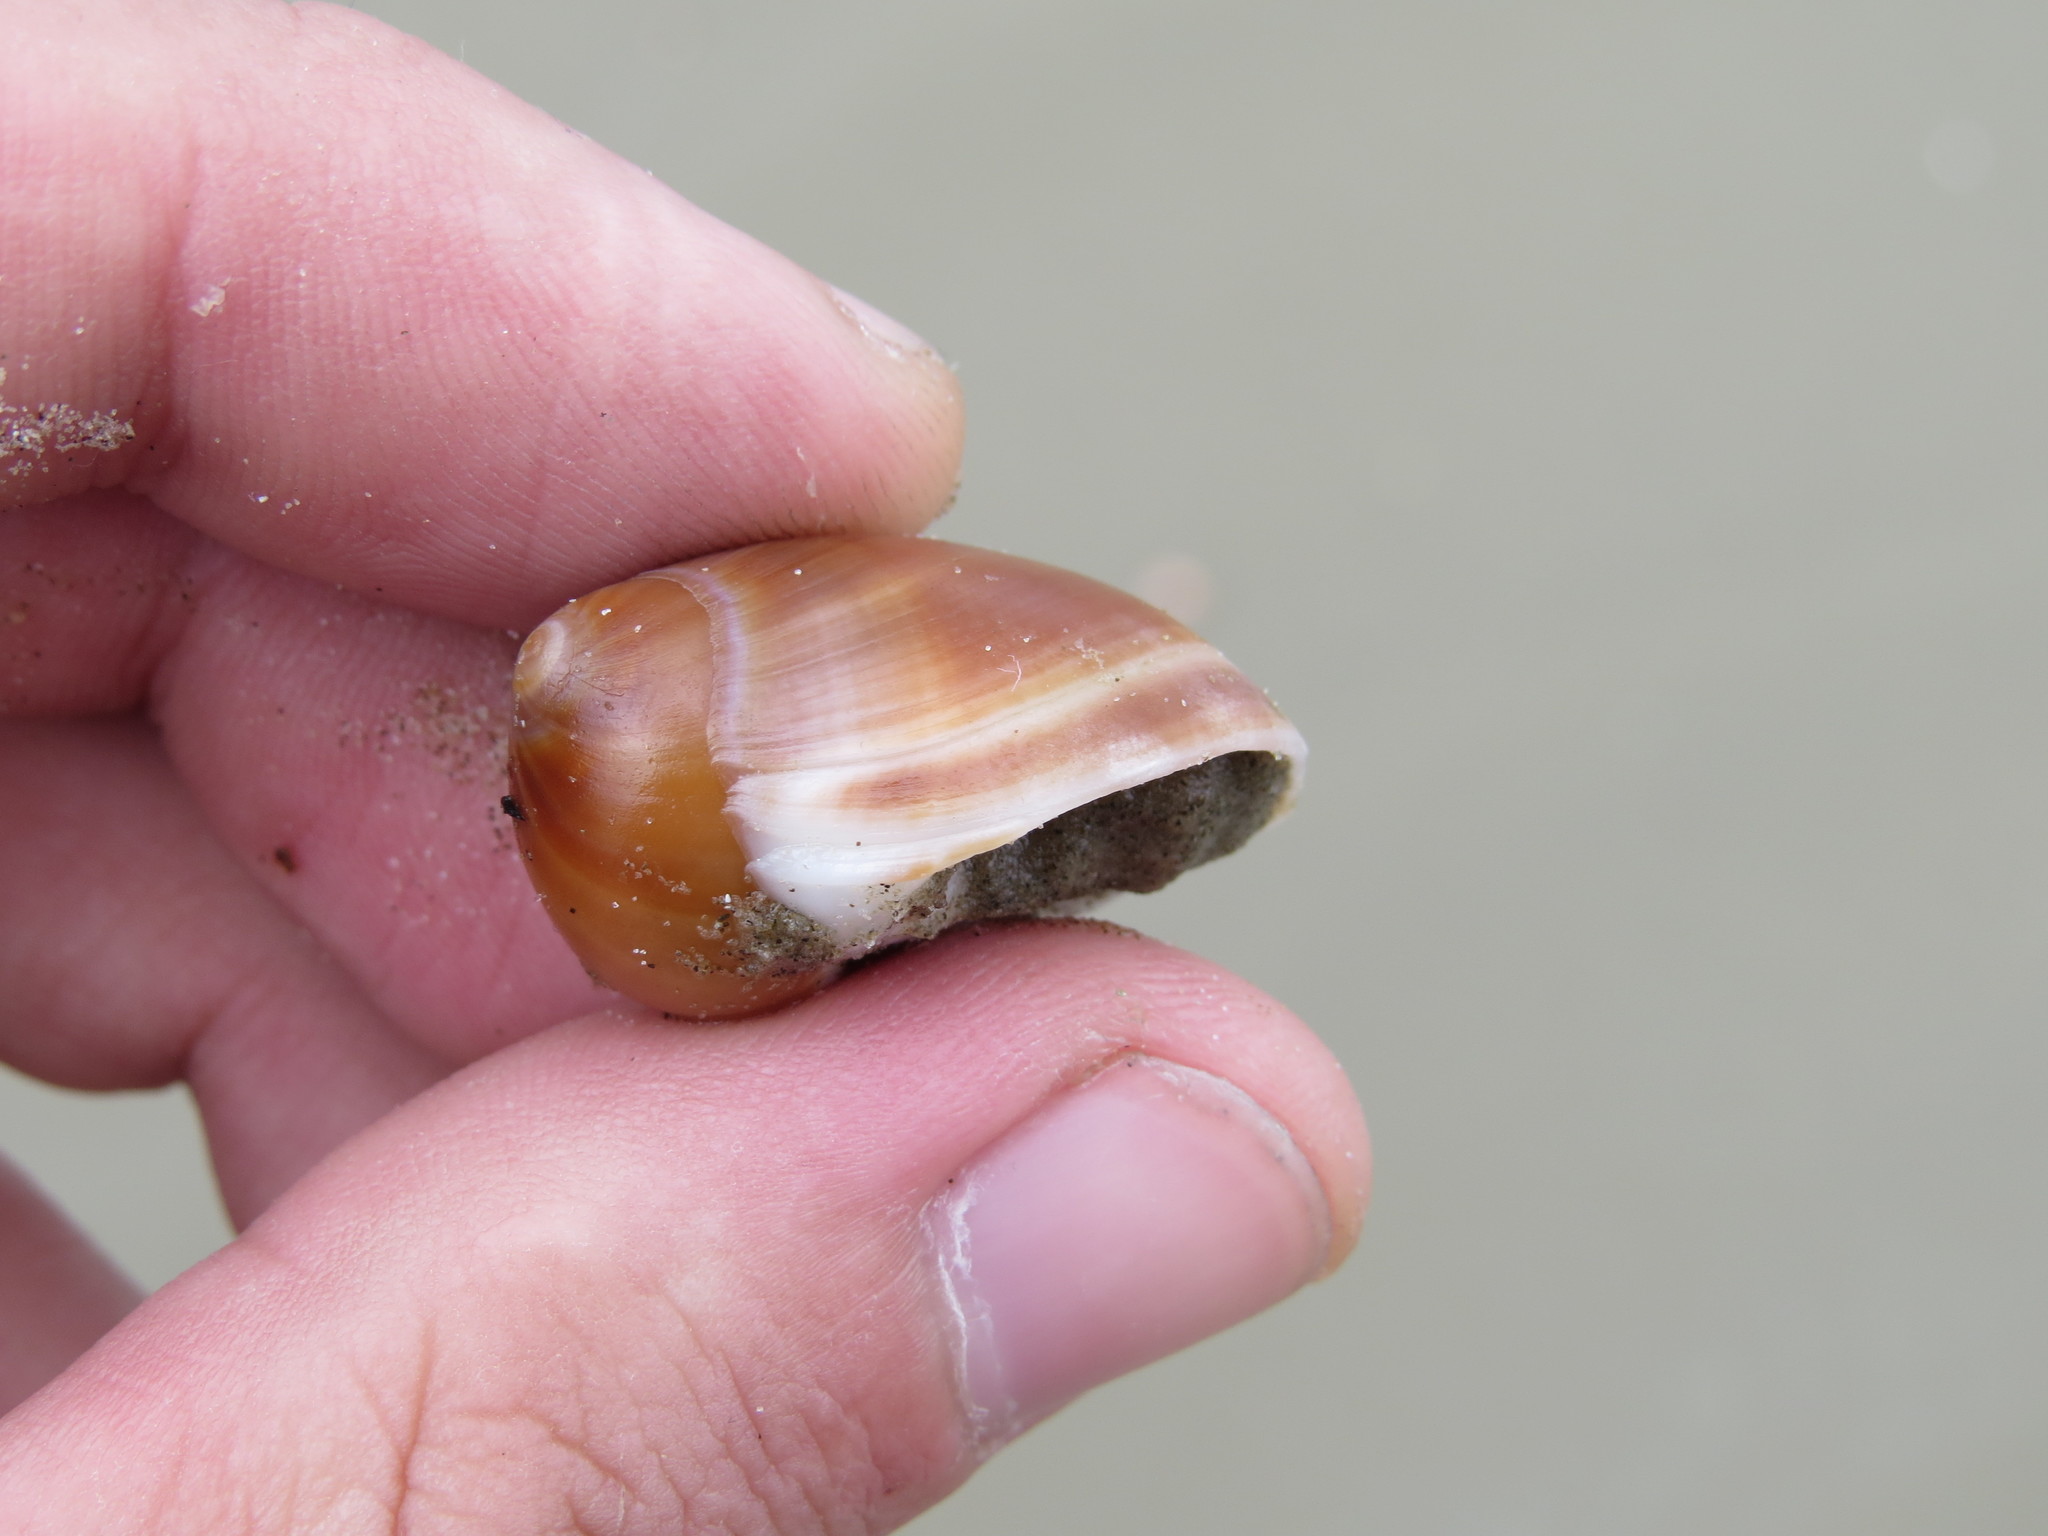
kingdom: Animalia
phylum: Mollusca
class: Gastropoda
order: Littorinimorpha
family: Naticidae
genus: Polinices
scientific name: Polinices hepaticus
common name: Brown moonsnail
